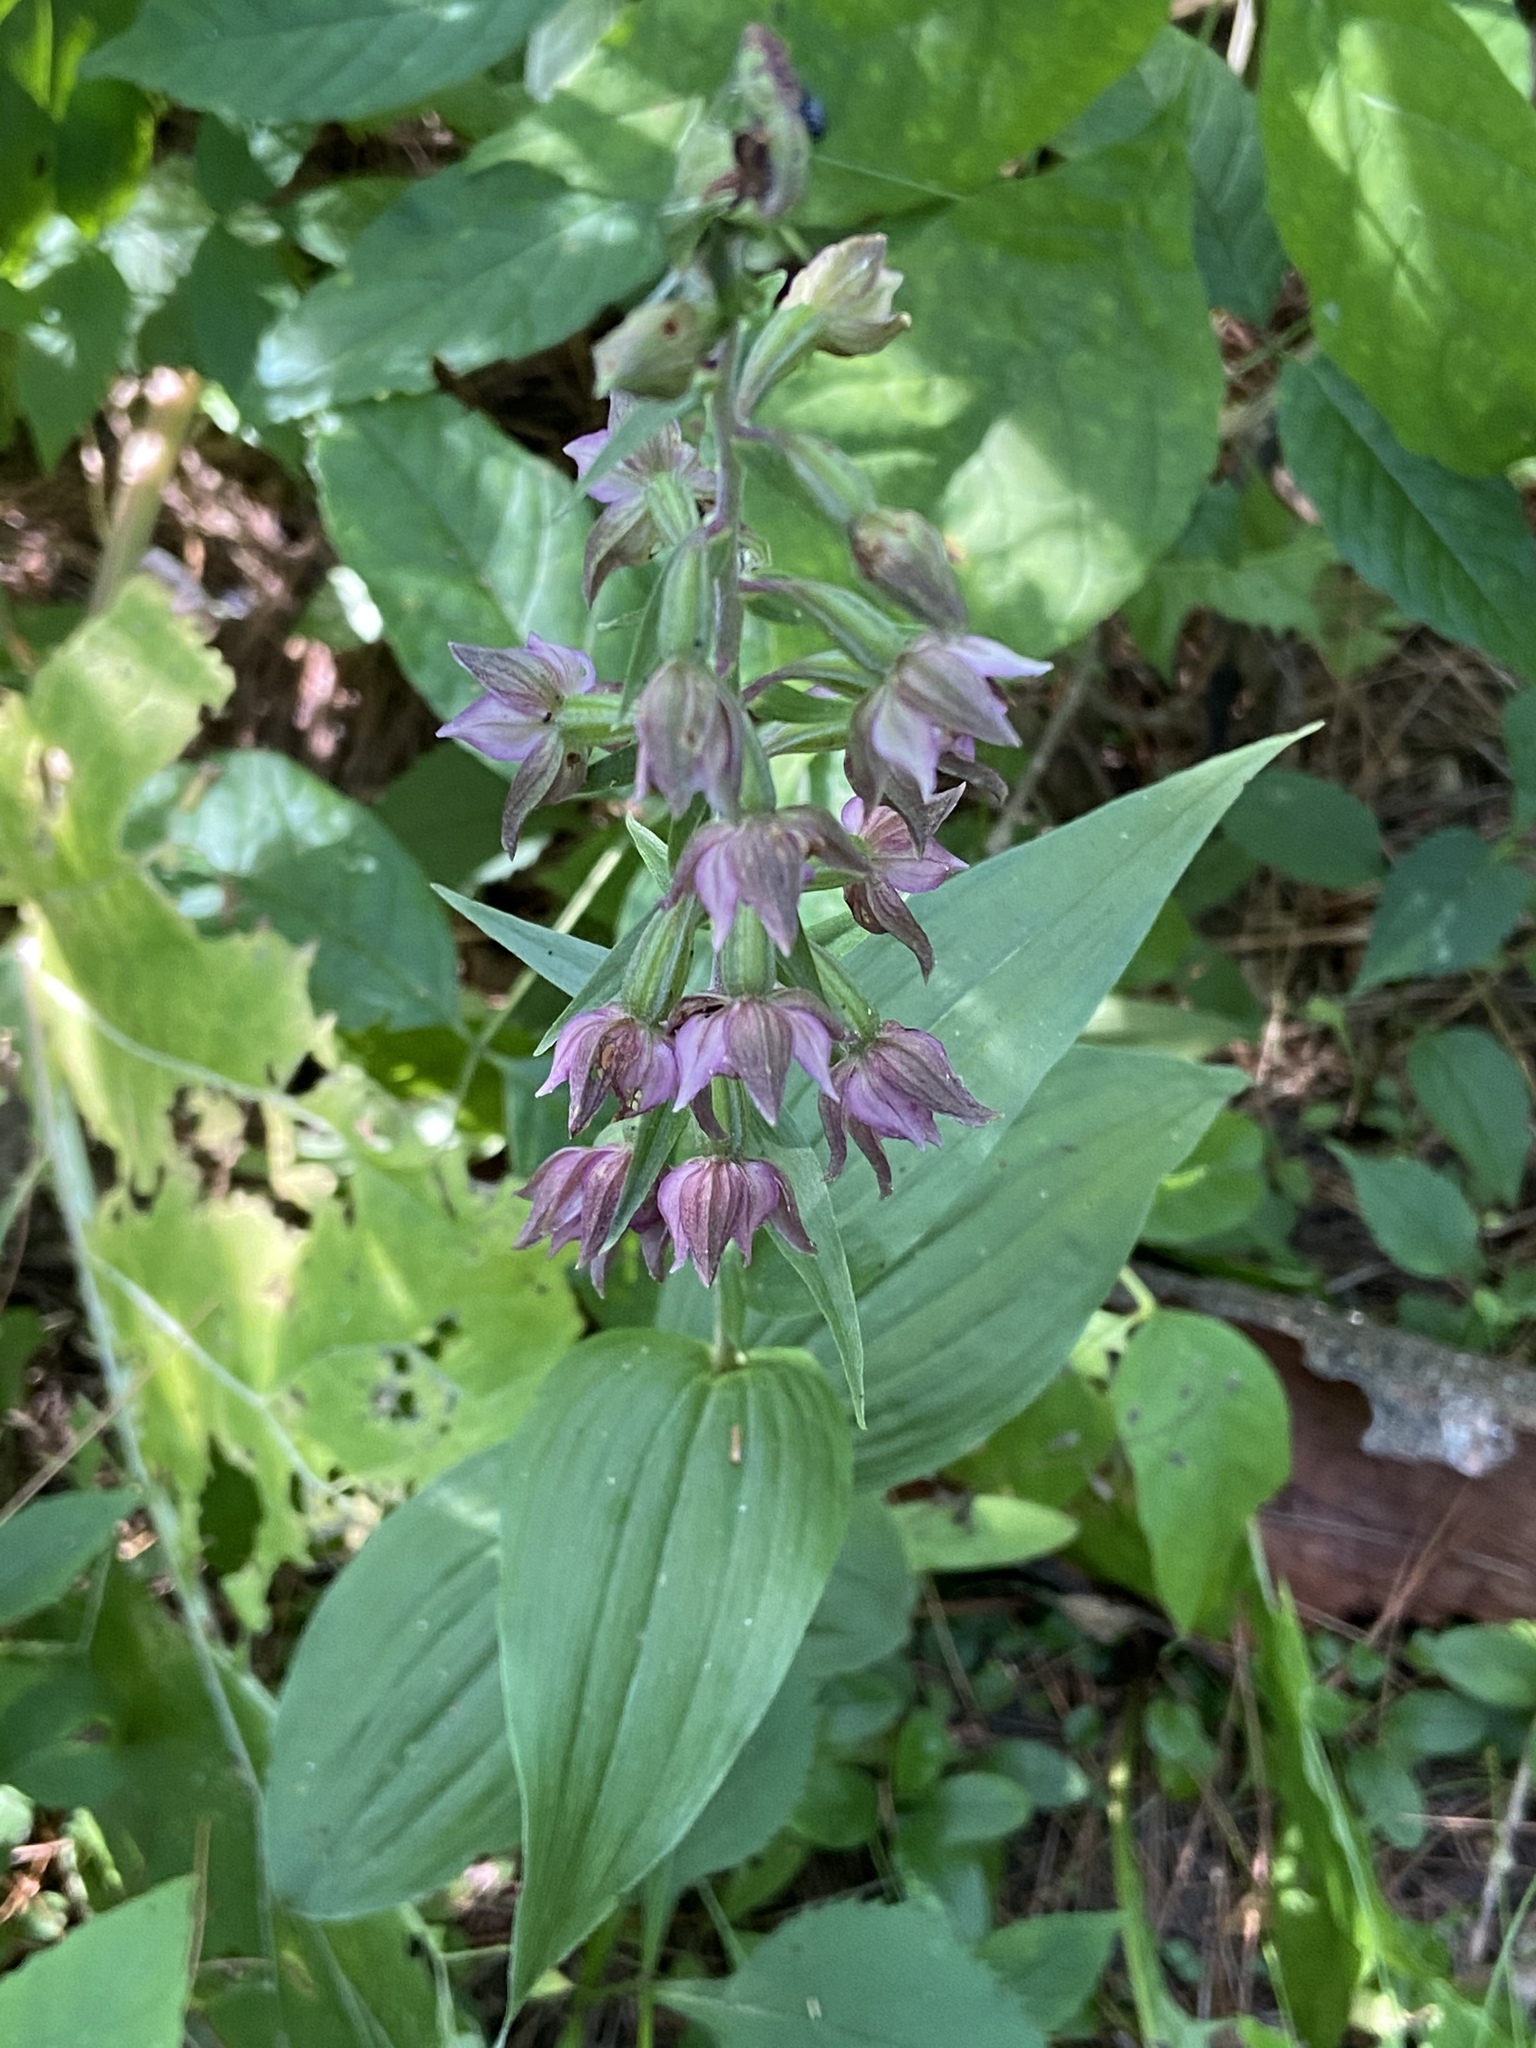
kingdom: Plantae
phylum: Tracheophyta
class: Liliopsida
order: Asparagales
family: Orchidaceae
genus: Epipactis
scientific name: Epipactis helleborine
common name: Broad-leaved helleborine
